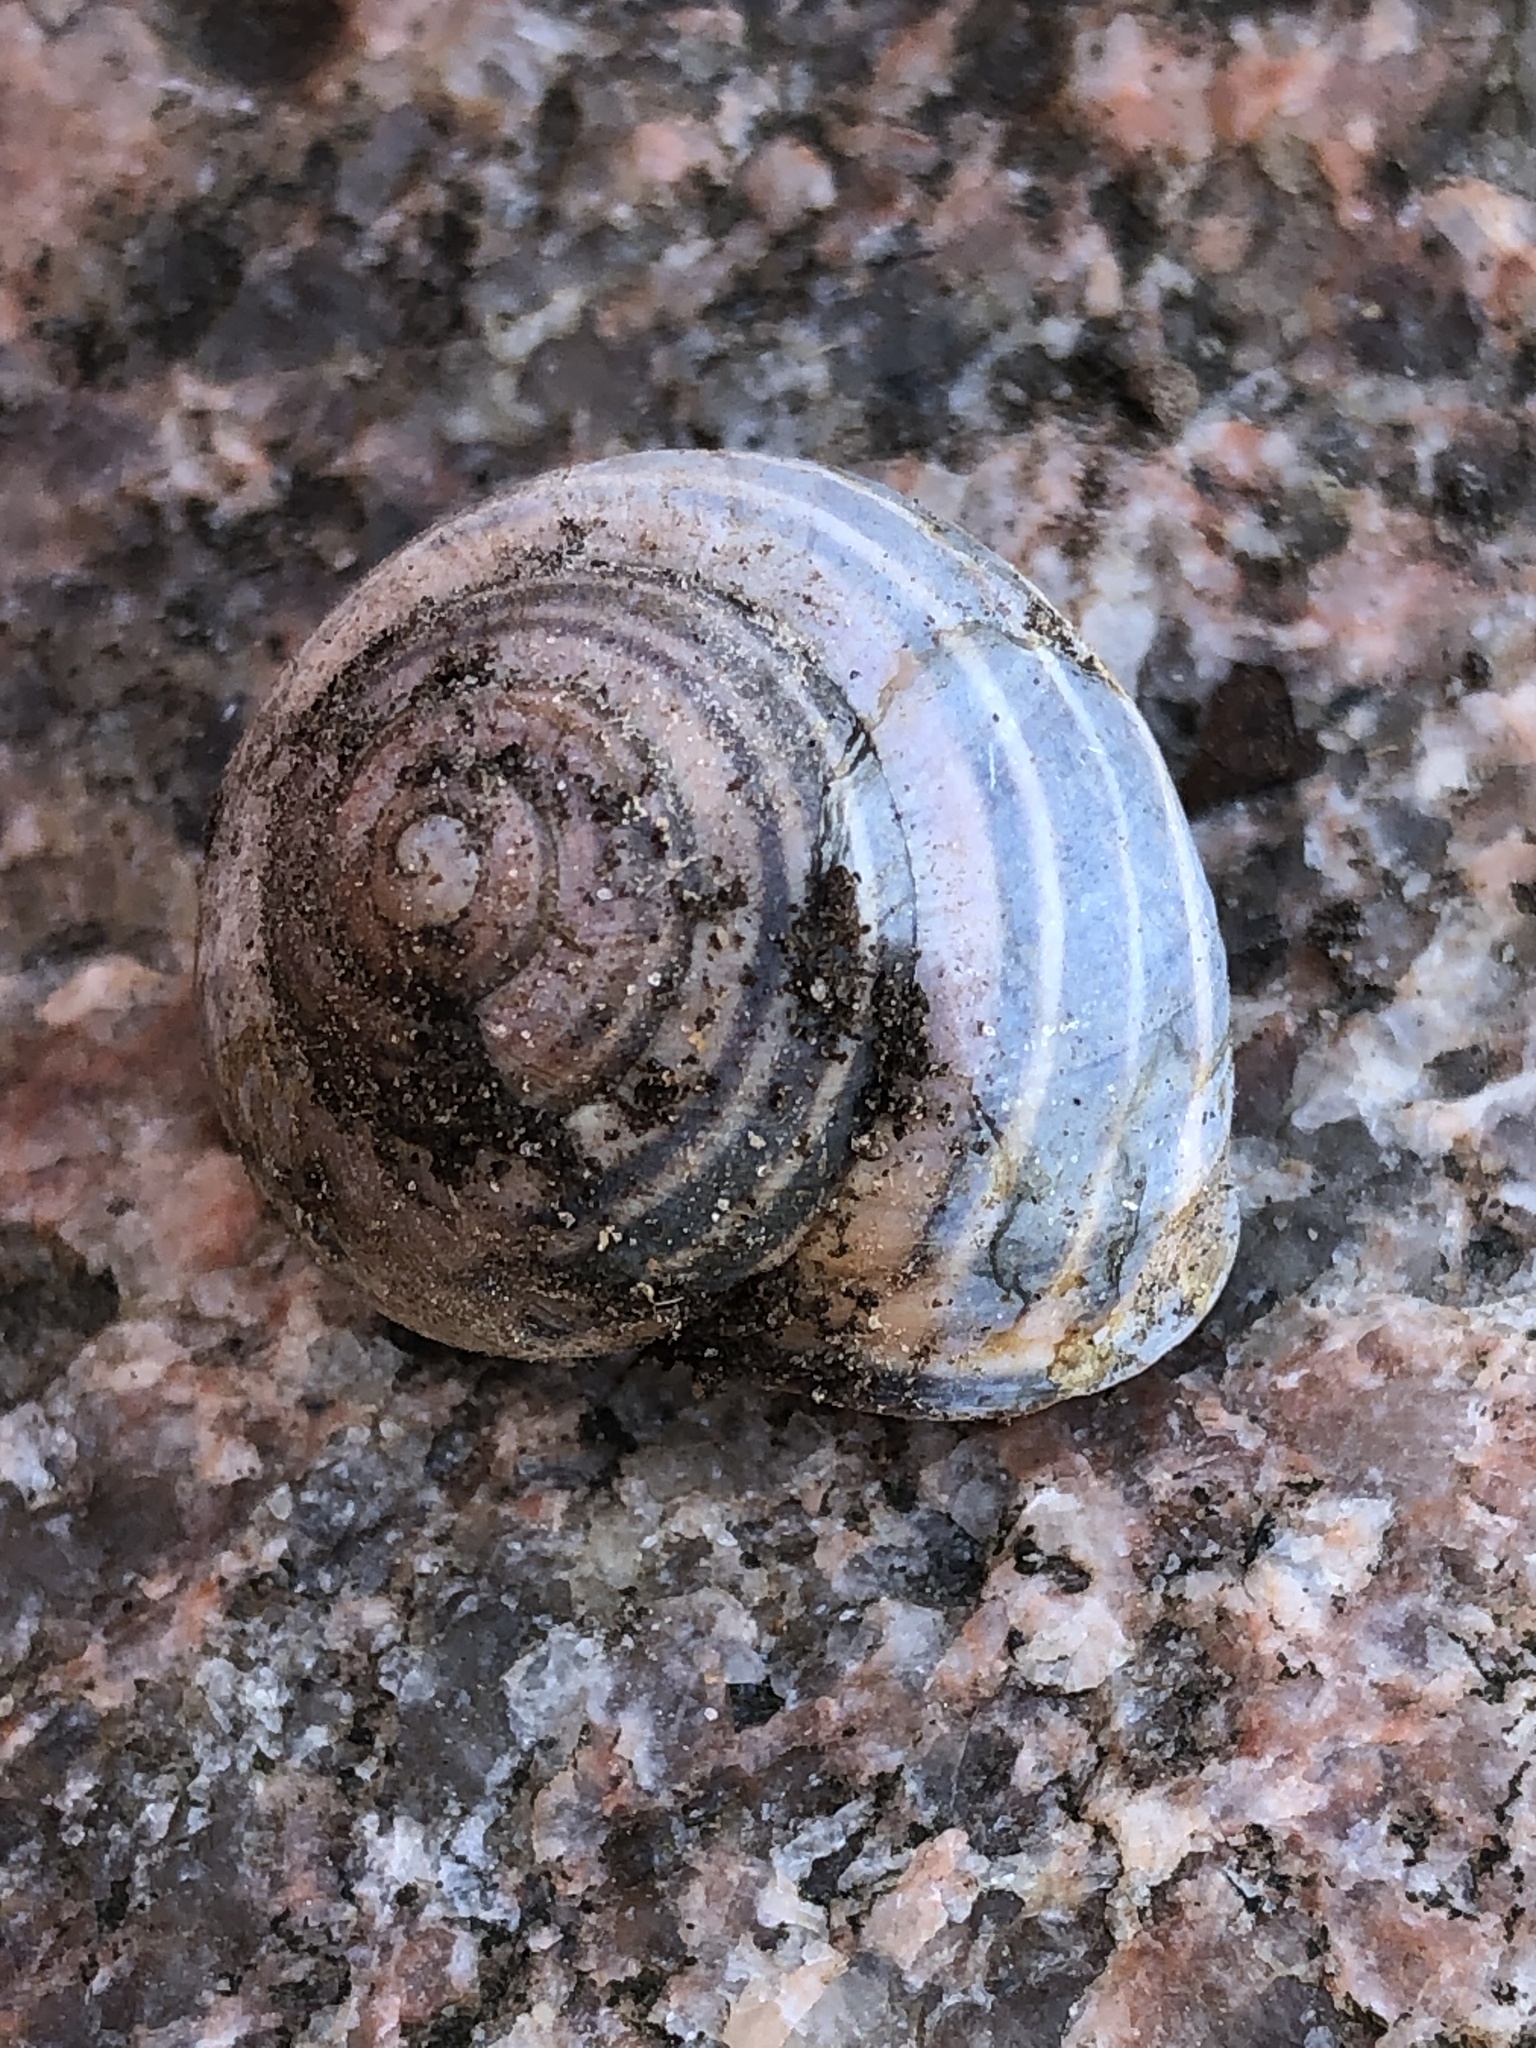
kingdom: Animalia
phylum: Mollusca
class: Gastropoda
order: Stylommatophora
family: Helicidae
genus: Cepaea
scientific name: Cepaea nemoralis
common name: Grovesnail
